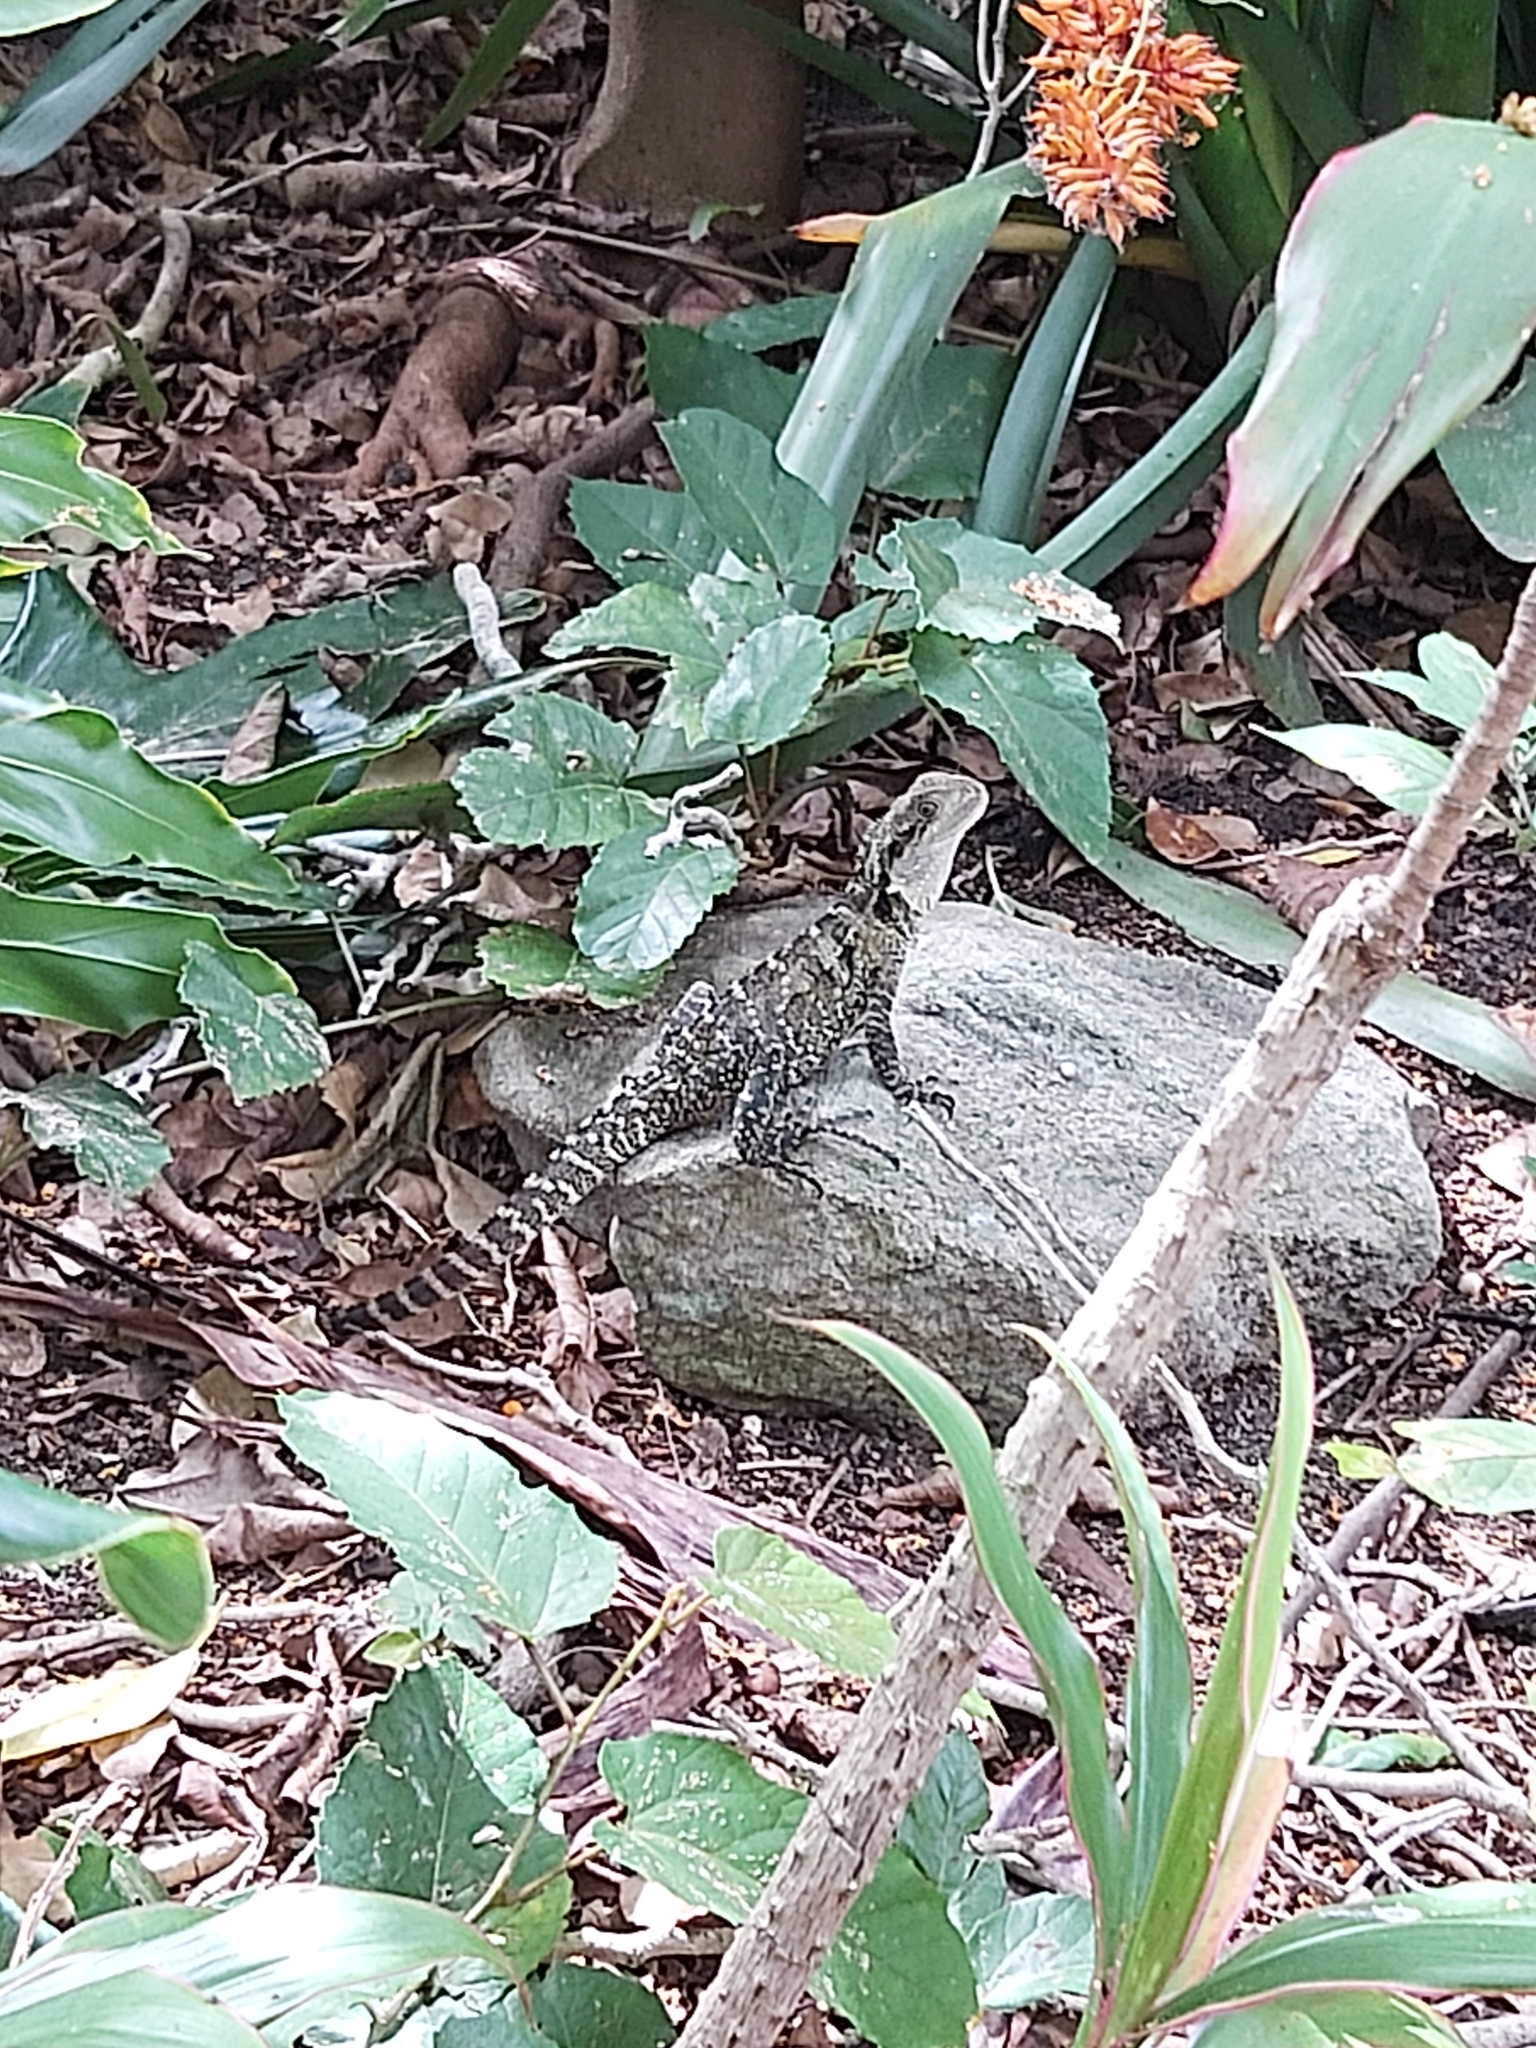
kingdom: Animalia
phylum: Chordata
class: Squamata
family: Agamidae
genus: Intellagama
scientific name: Intellagama lesueurii
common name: Eastern water dragon
